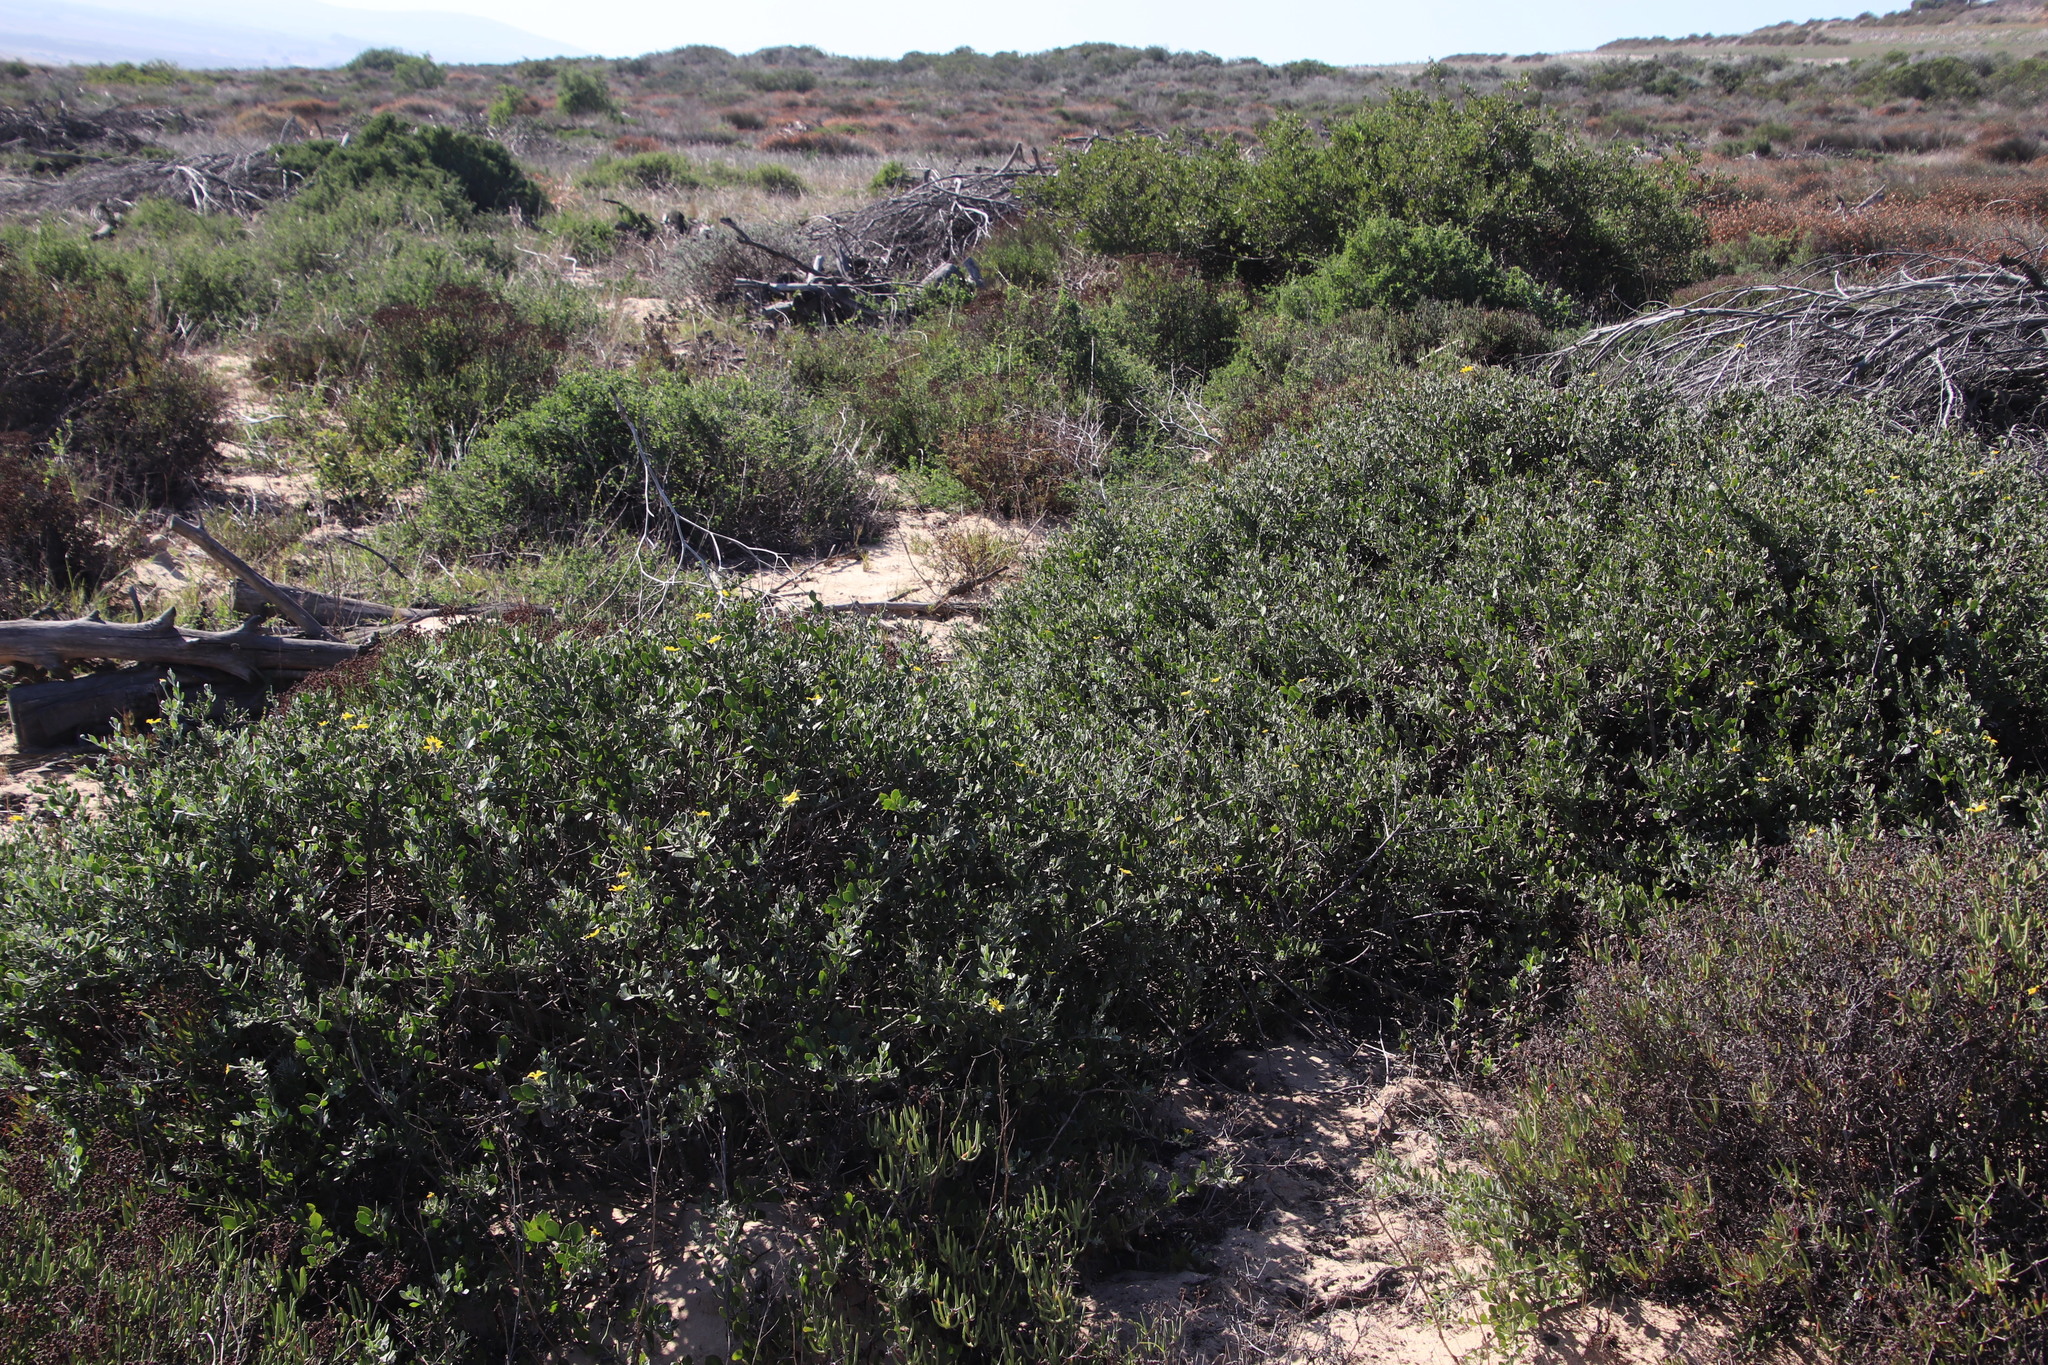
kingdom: Plantae
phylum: Tracheophyta
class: Magnoliopsida
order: Asterales
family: Asteraceae
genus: Osteospermum
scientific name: Osteospermum incanum
